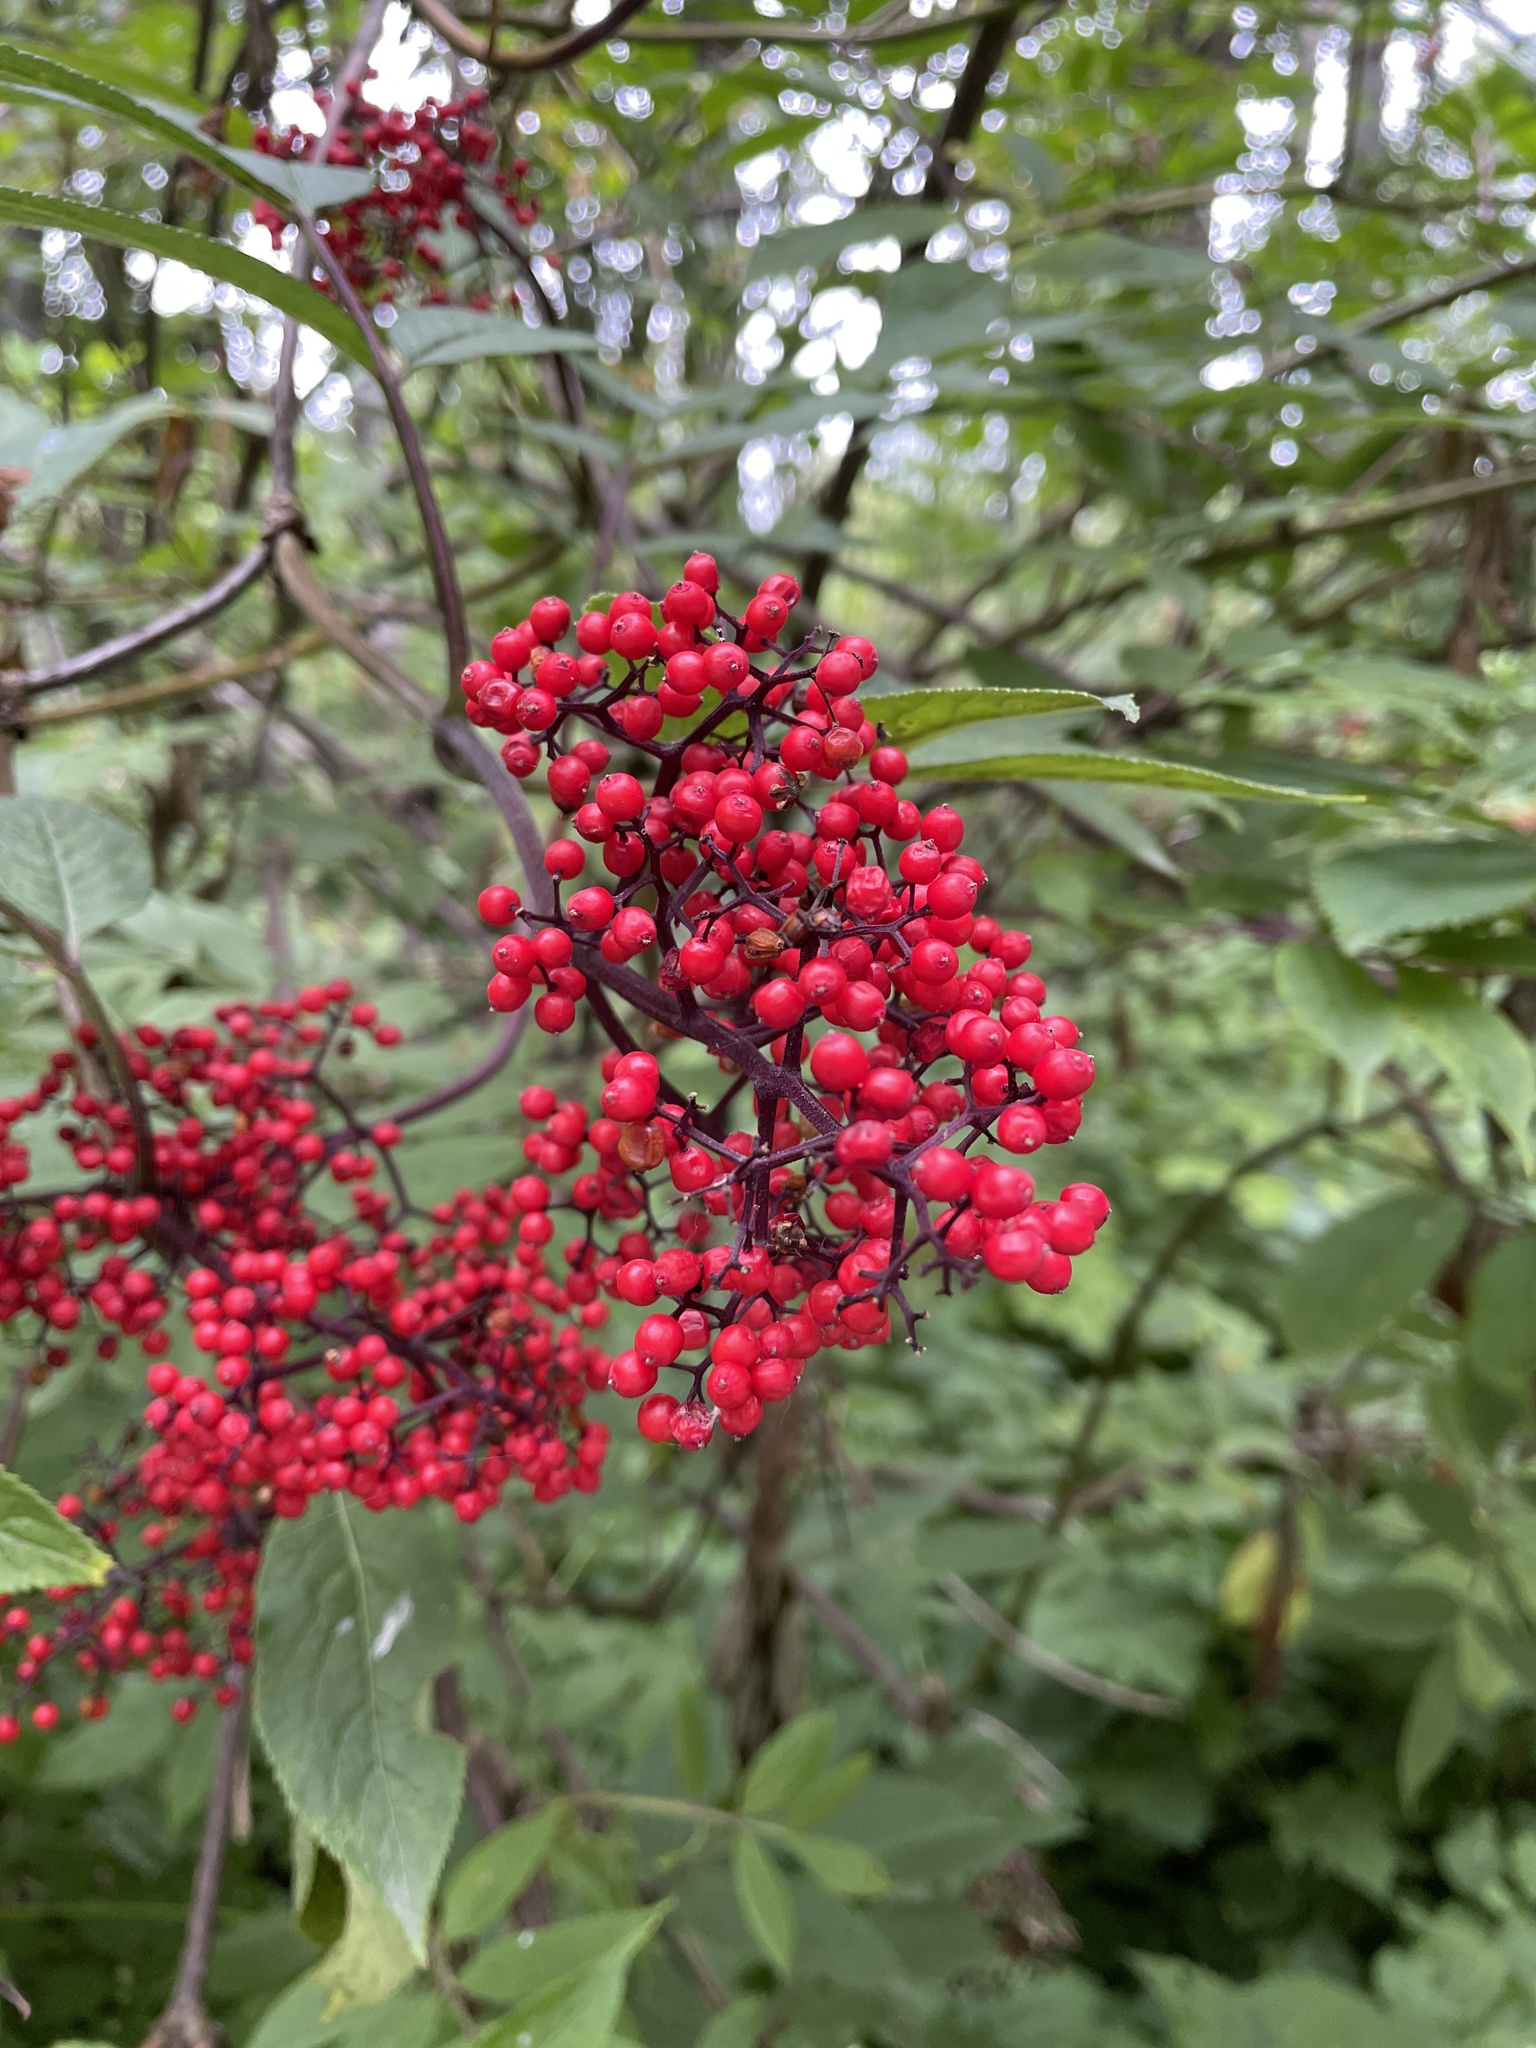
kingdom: Plantae
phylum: Tracheophyta
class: Magnoliopsida
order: Dipsacales
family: Viburnaceae
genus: Sambucus
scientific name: Sambucus racemosa
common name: Red-berried elder
